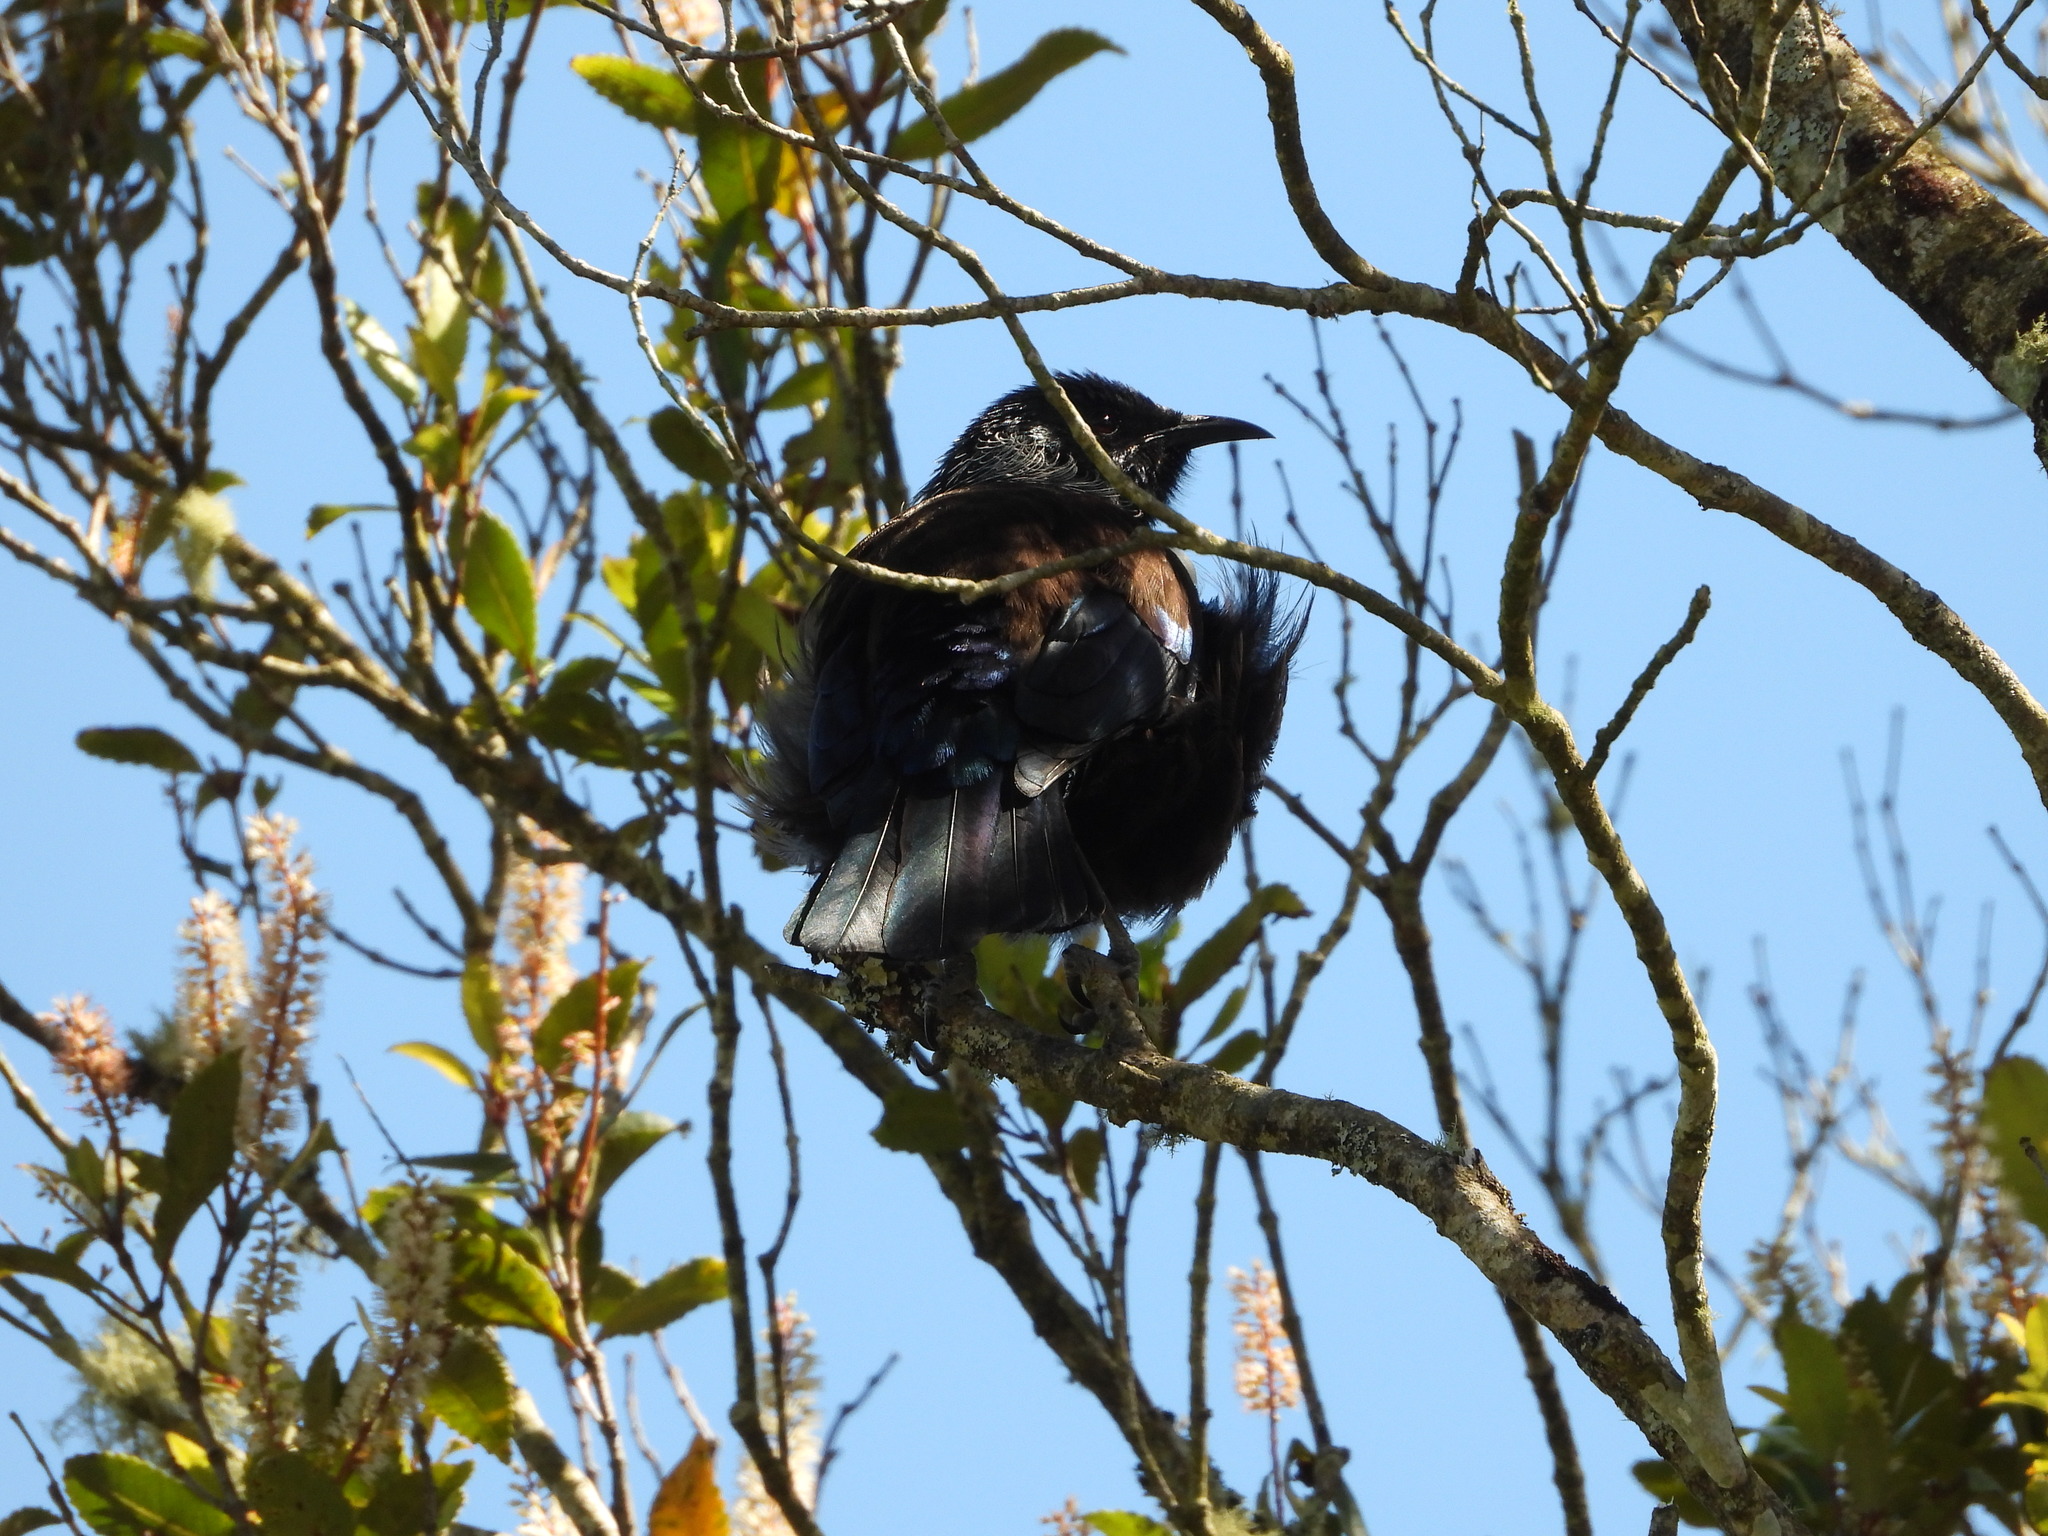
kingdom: Animalia
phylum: Chordata
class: Aves
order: Passeriformes
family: Meliphagidae
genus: Prosthemadera
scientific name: Prosthemadera novaeseelandiae
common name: Tui
